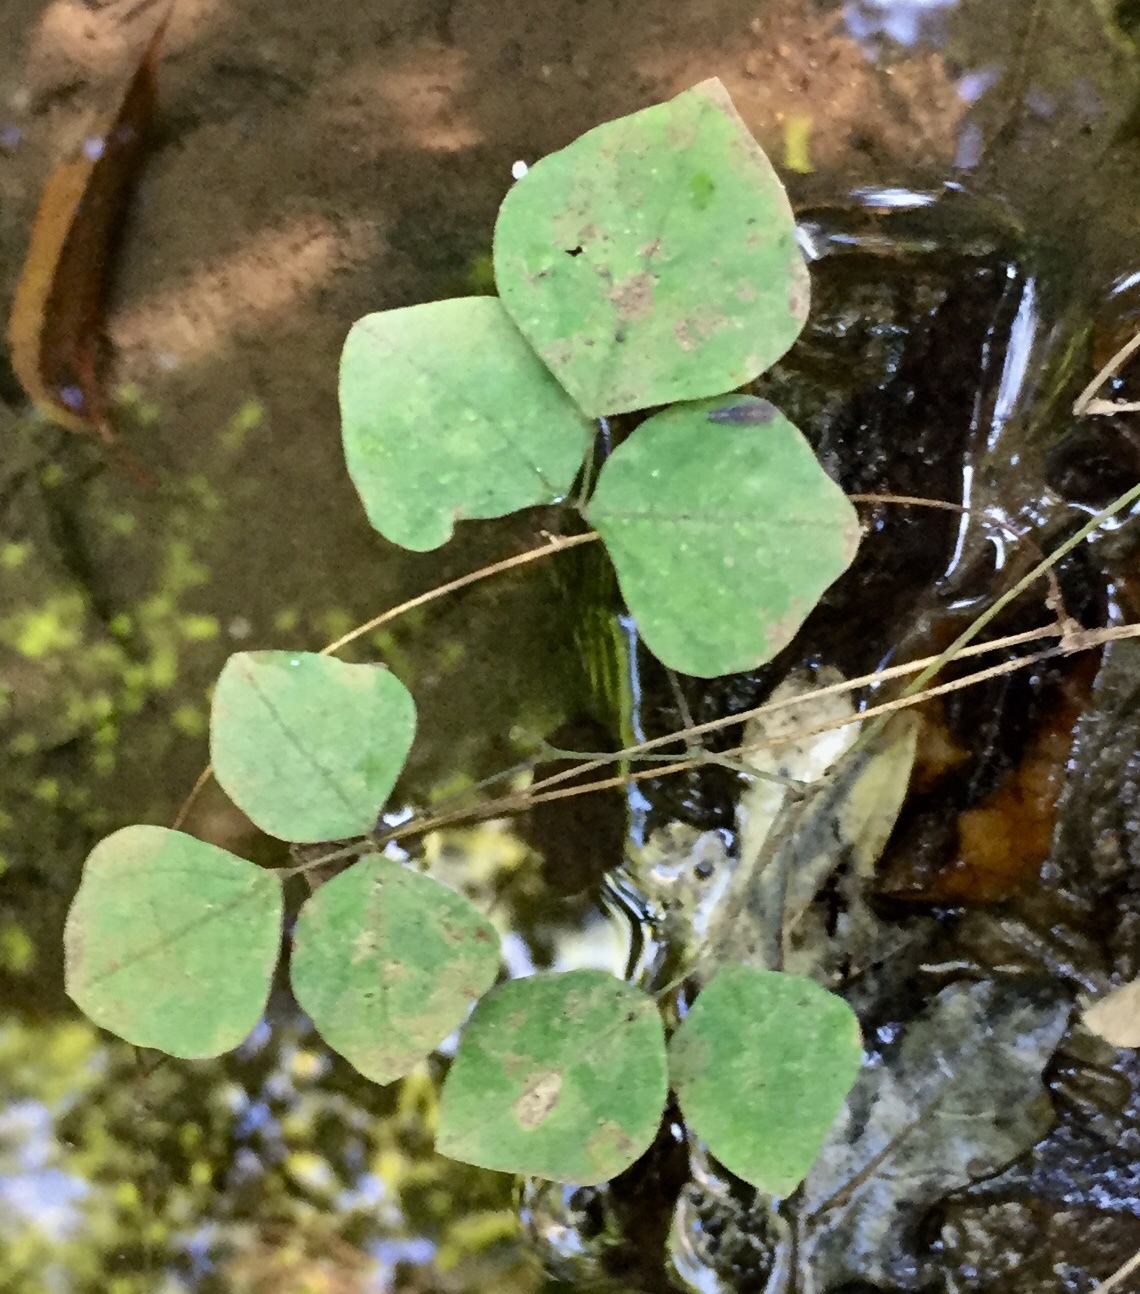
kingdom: Plantae
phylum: Tracheophyta
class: Magnoliopsida
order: Fabales
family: Fabaceae
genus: Amphicarpaea
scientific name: Amphicarpaea bracteata
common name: American hog peanut
